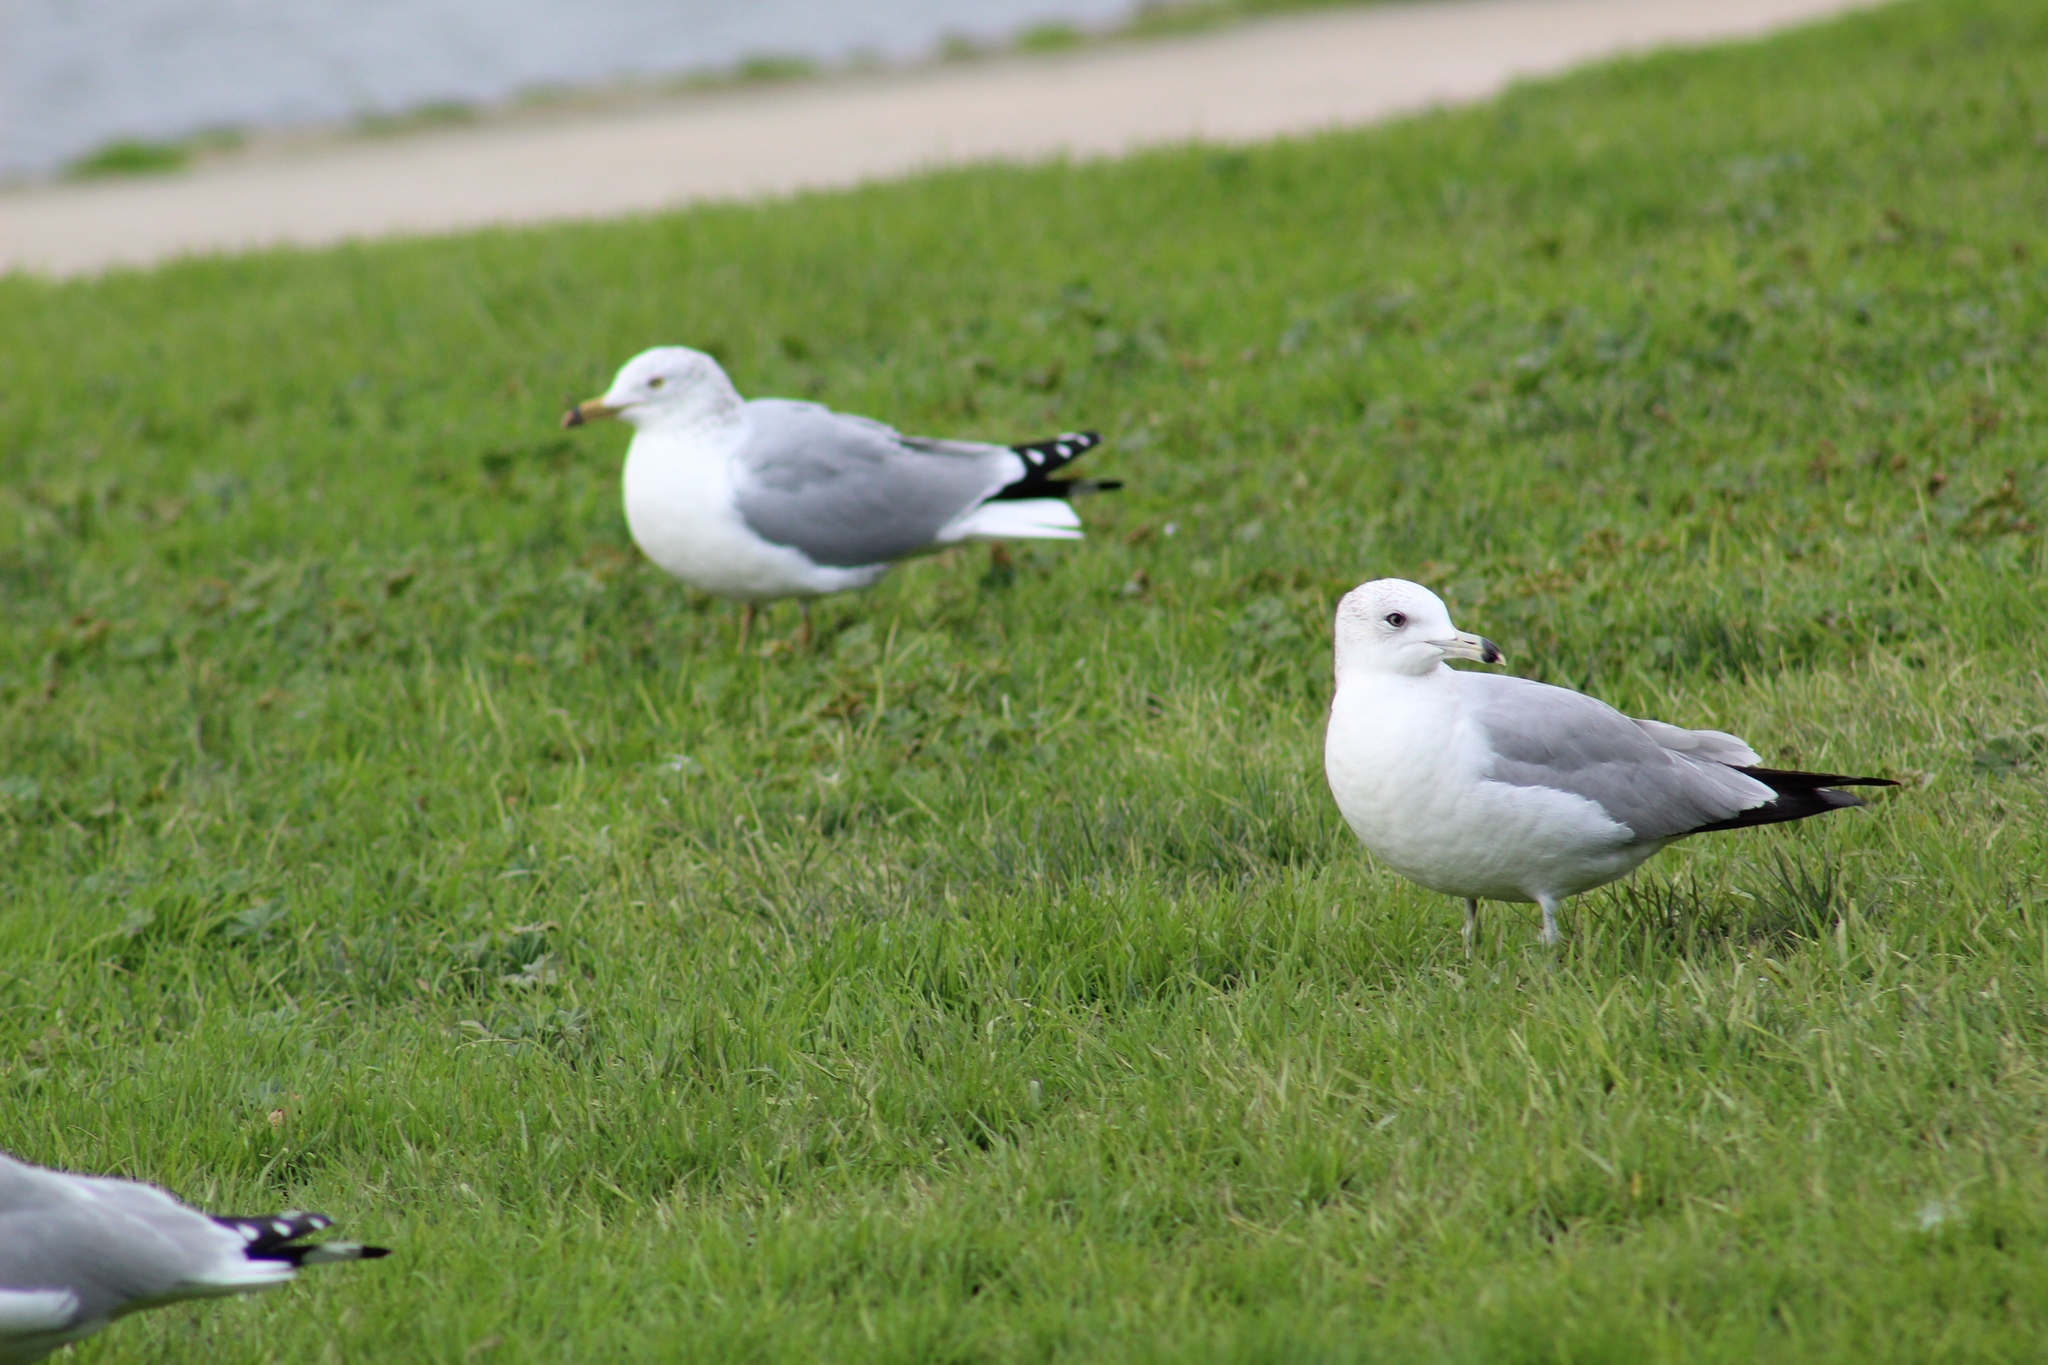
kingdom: Animalia
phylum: Chordata
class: Aves
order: Charadriiformes
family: Laridae
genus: Larus
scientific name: Larus delawarensis
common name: Ring-billed gull
